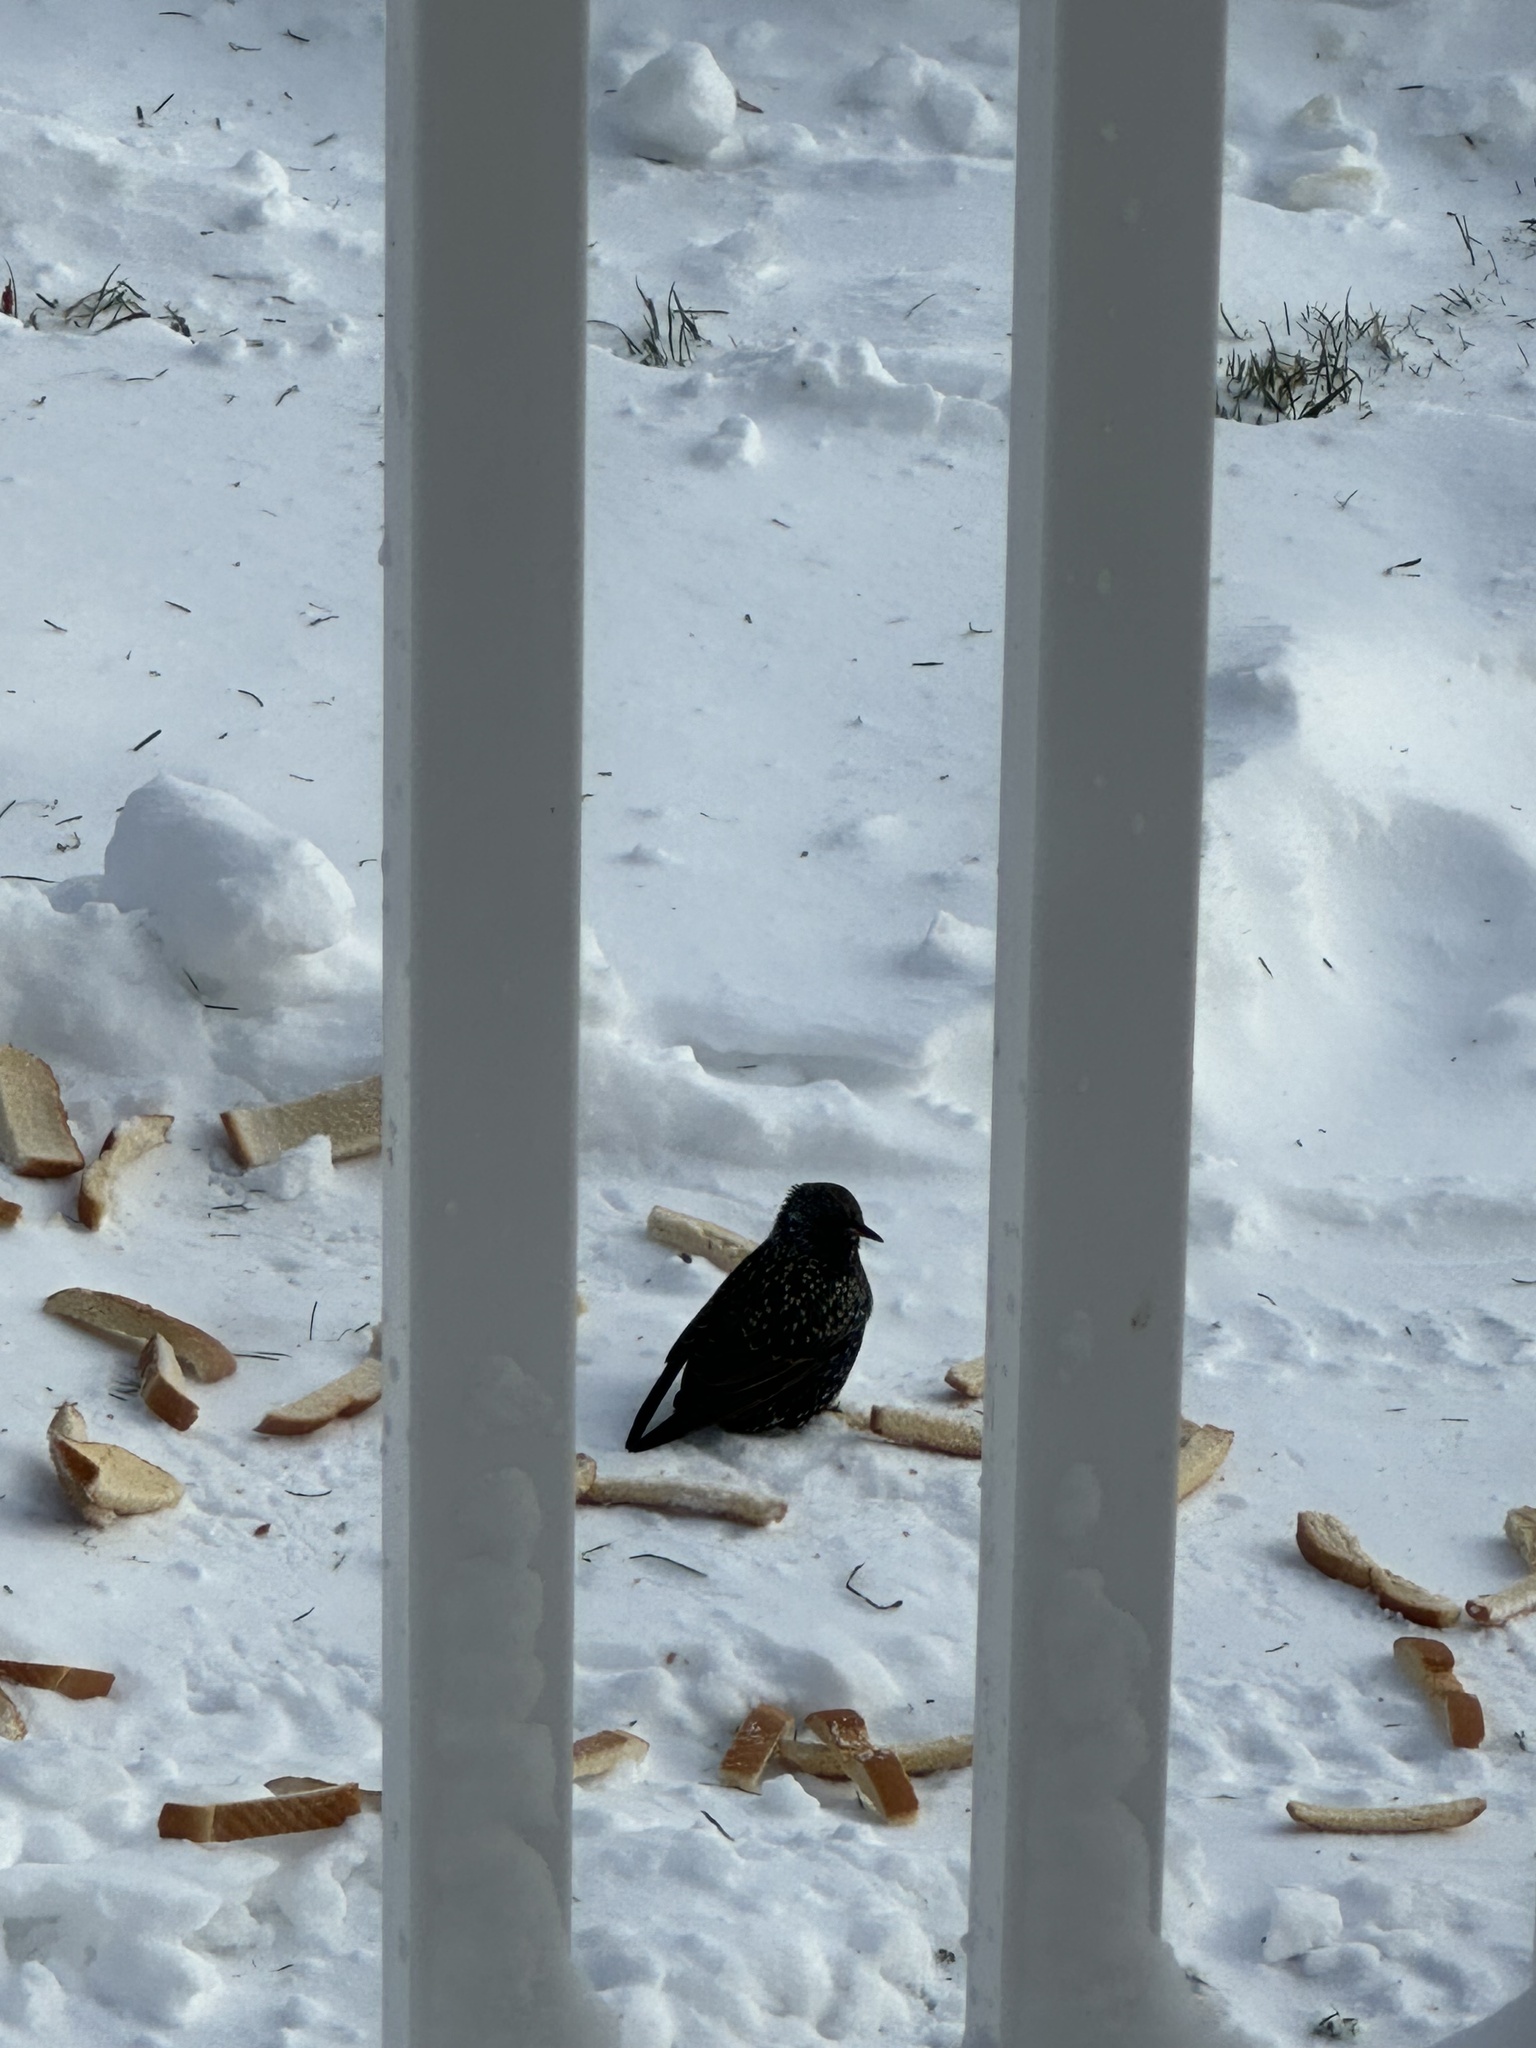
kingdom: Animalia
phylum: Chordata
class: Aves
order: Passeriformes
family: Sturnidae
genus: Sturnus
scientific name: Sturnus vulgaris
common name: Common starling
